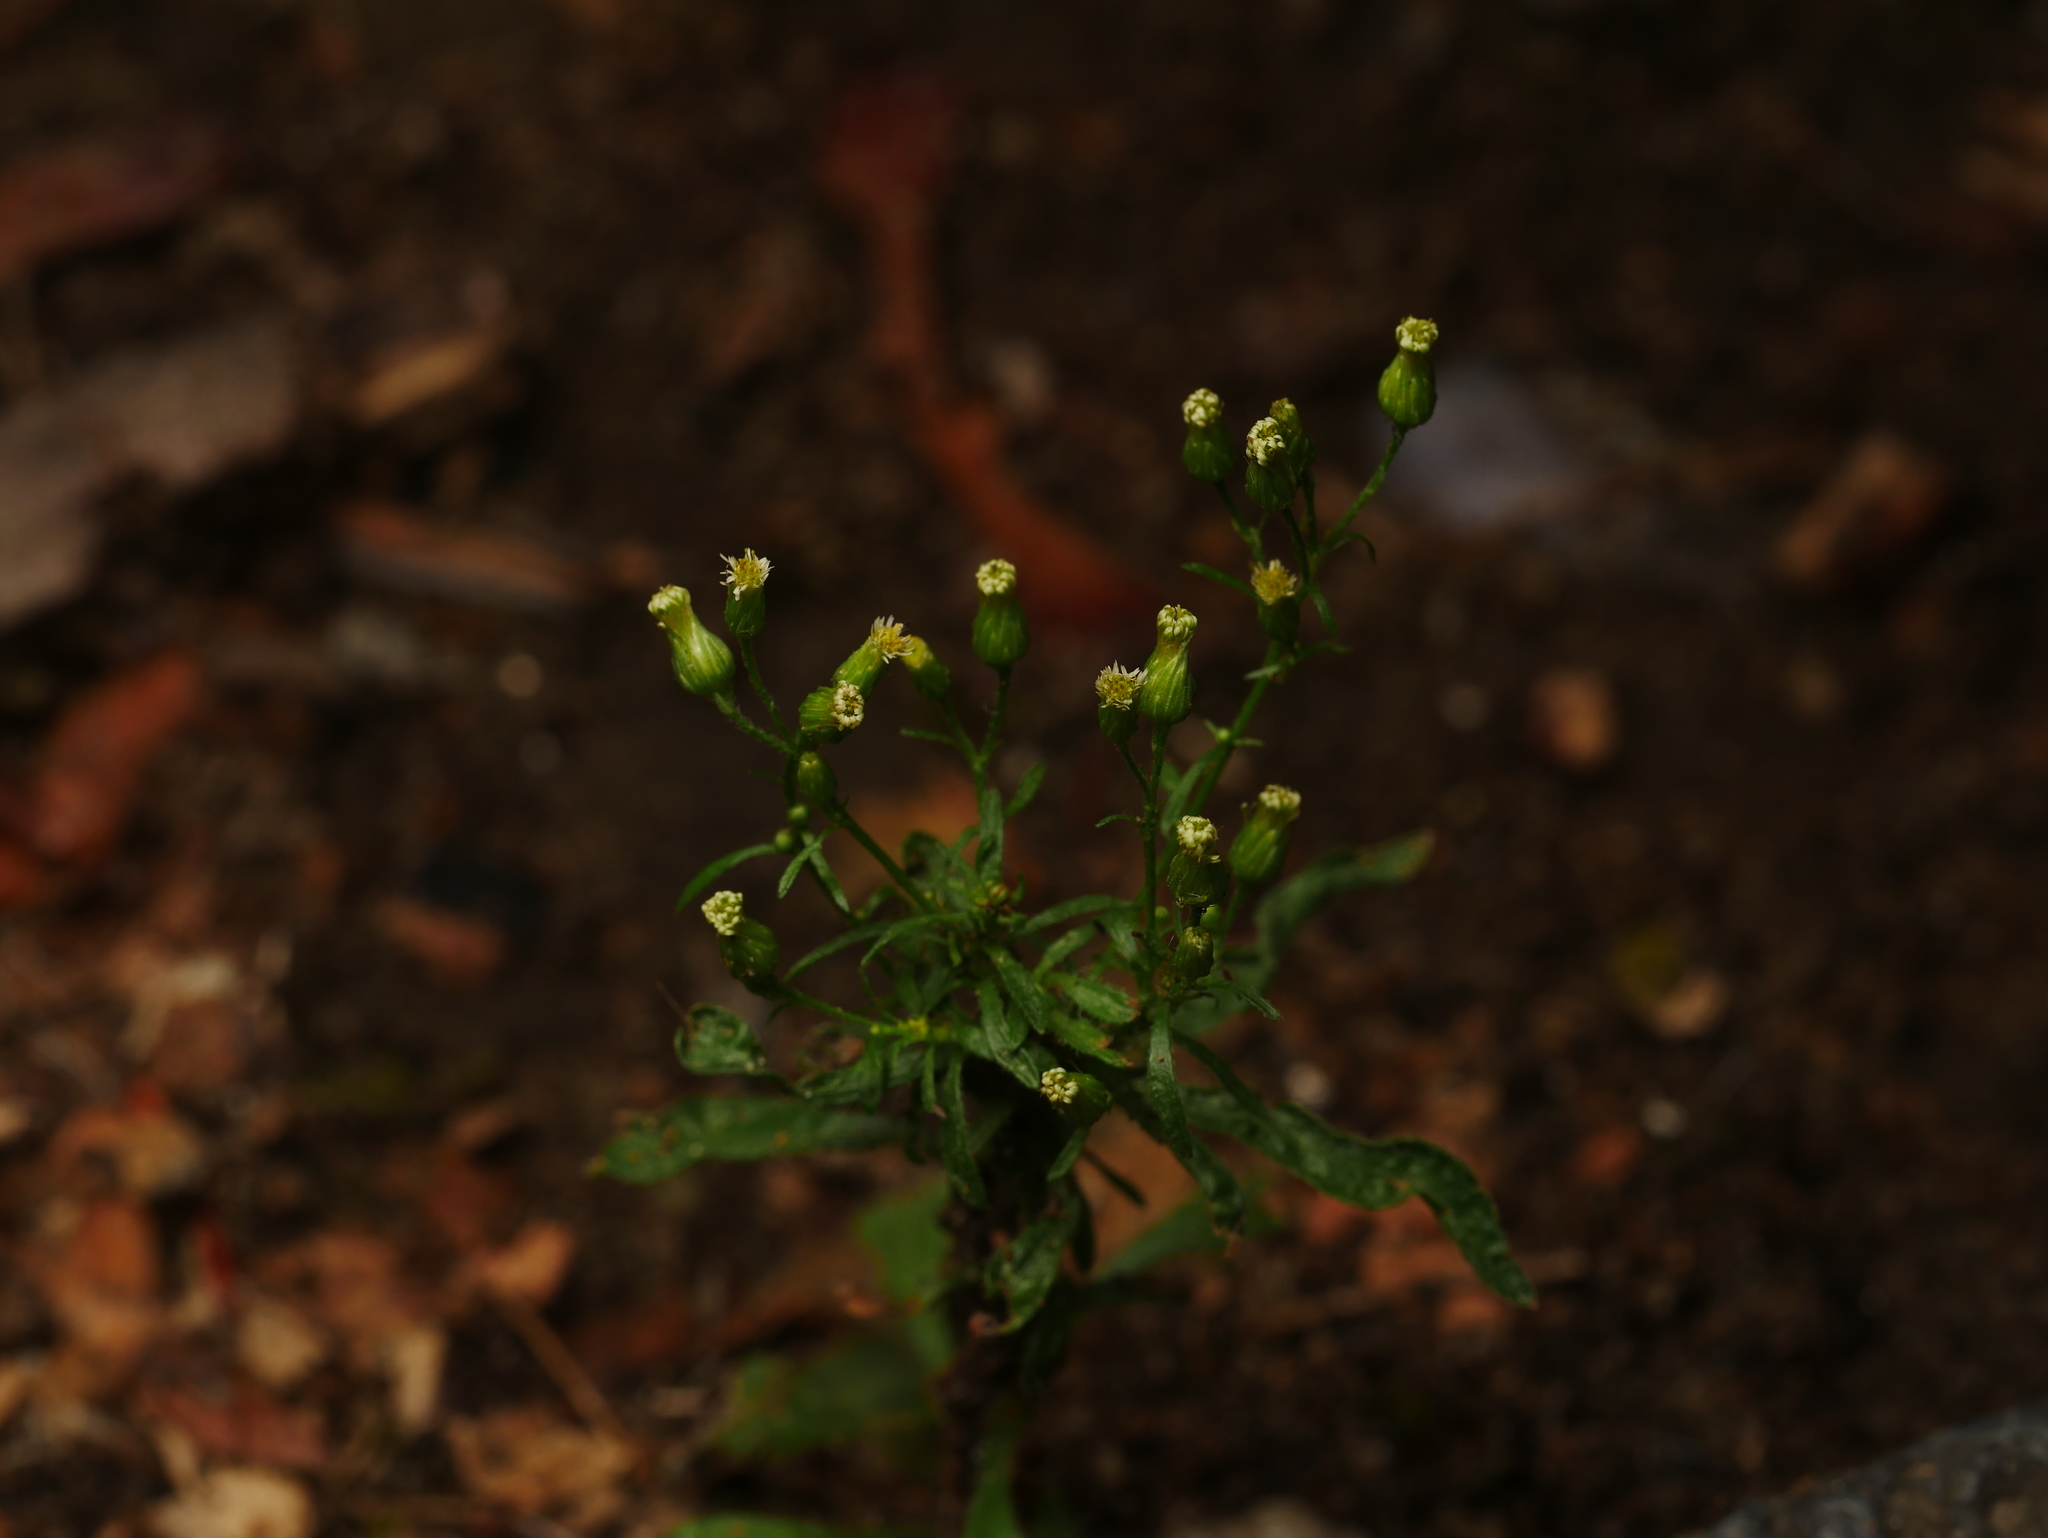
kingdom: Plantae
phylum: Tracheophyta
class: Magnoliopsida
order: Asterales
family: Asteraceae
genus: Erigeron
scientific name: Erigeron canadensis
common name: Canadian fleabane
